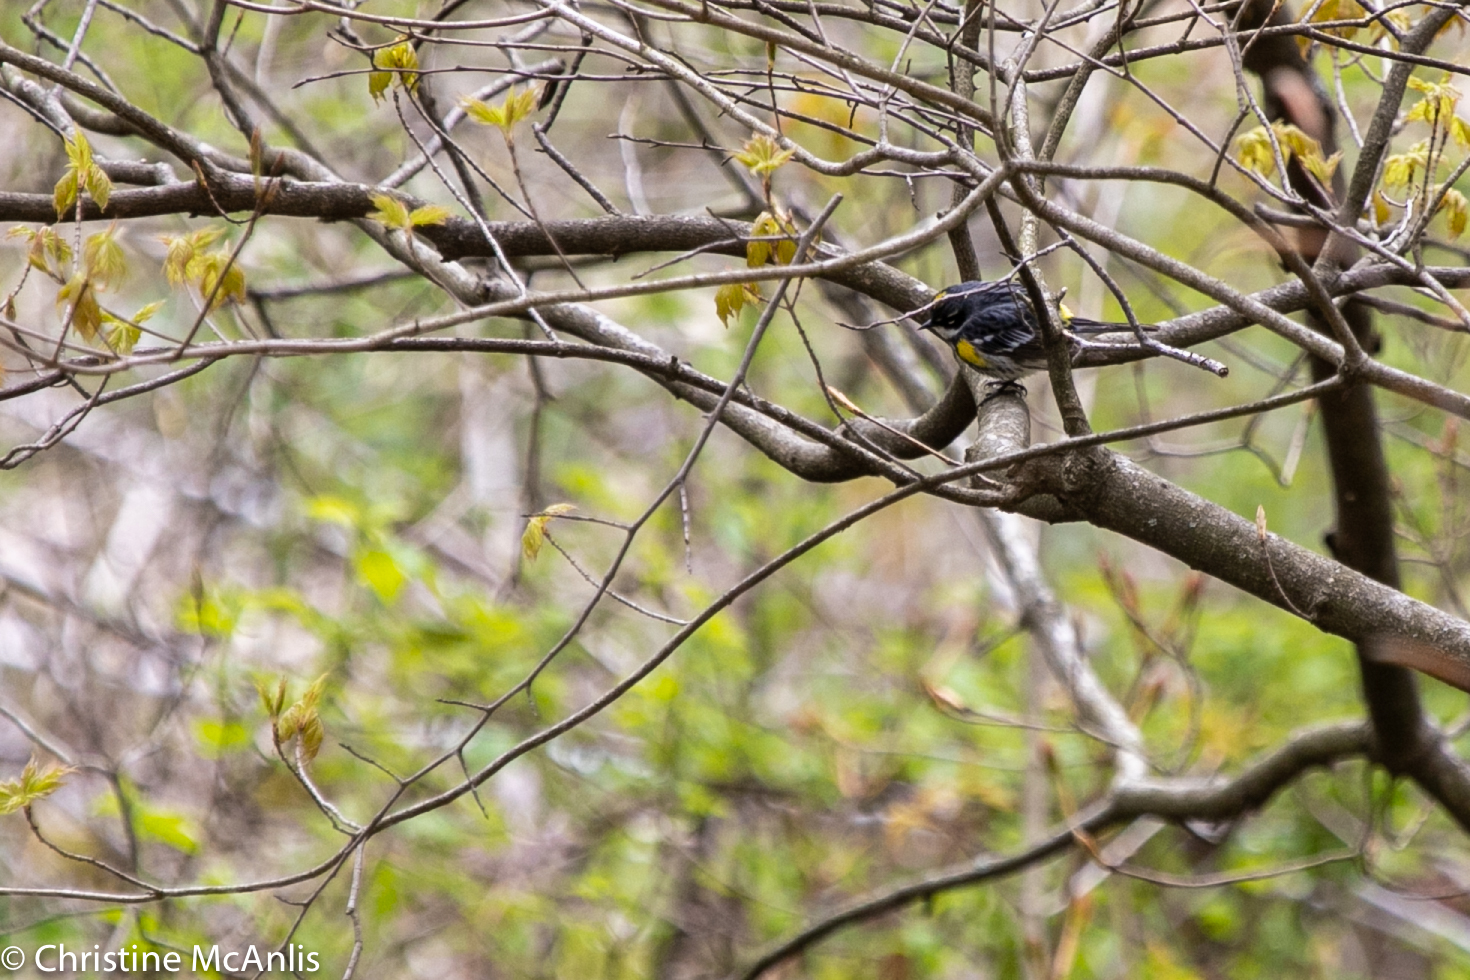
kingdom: Animalia
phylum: Chordata
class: Aves
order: Passeriformes
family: Parulidae
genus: Setophaga
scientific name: Setophaga coronata
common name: Myrtle warbler
